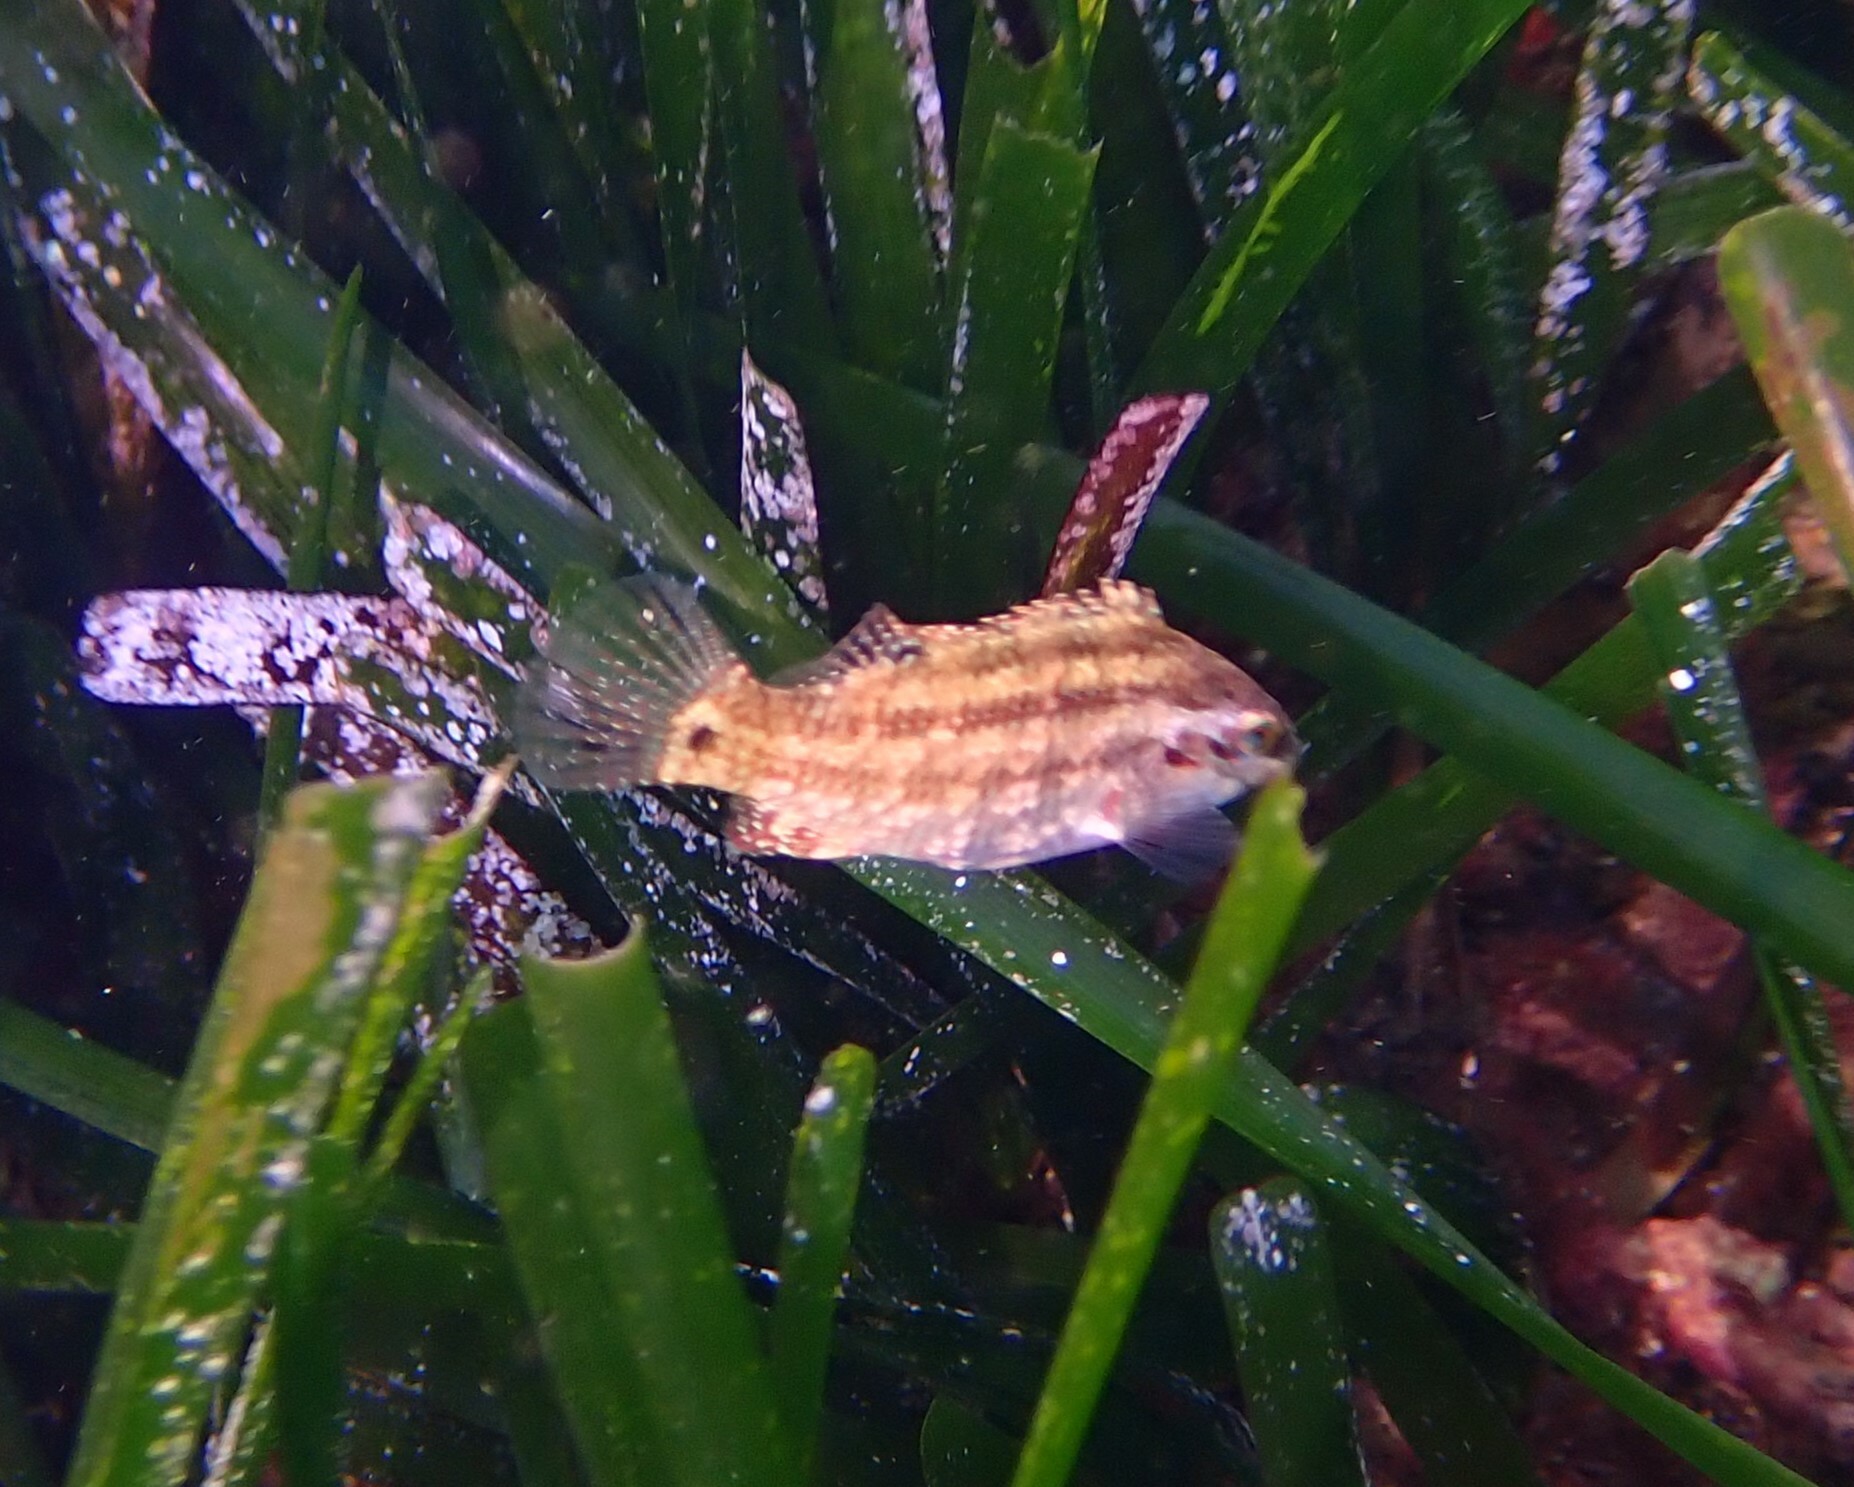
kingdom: Animalia
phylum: Chordata
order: Perciformes
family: Labridae
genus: Symphodus
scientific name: Symphodus roissali
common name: Five-spotted wrasse
